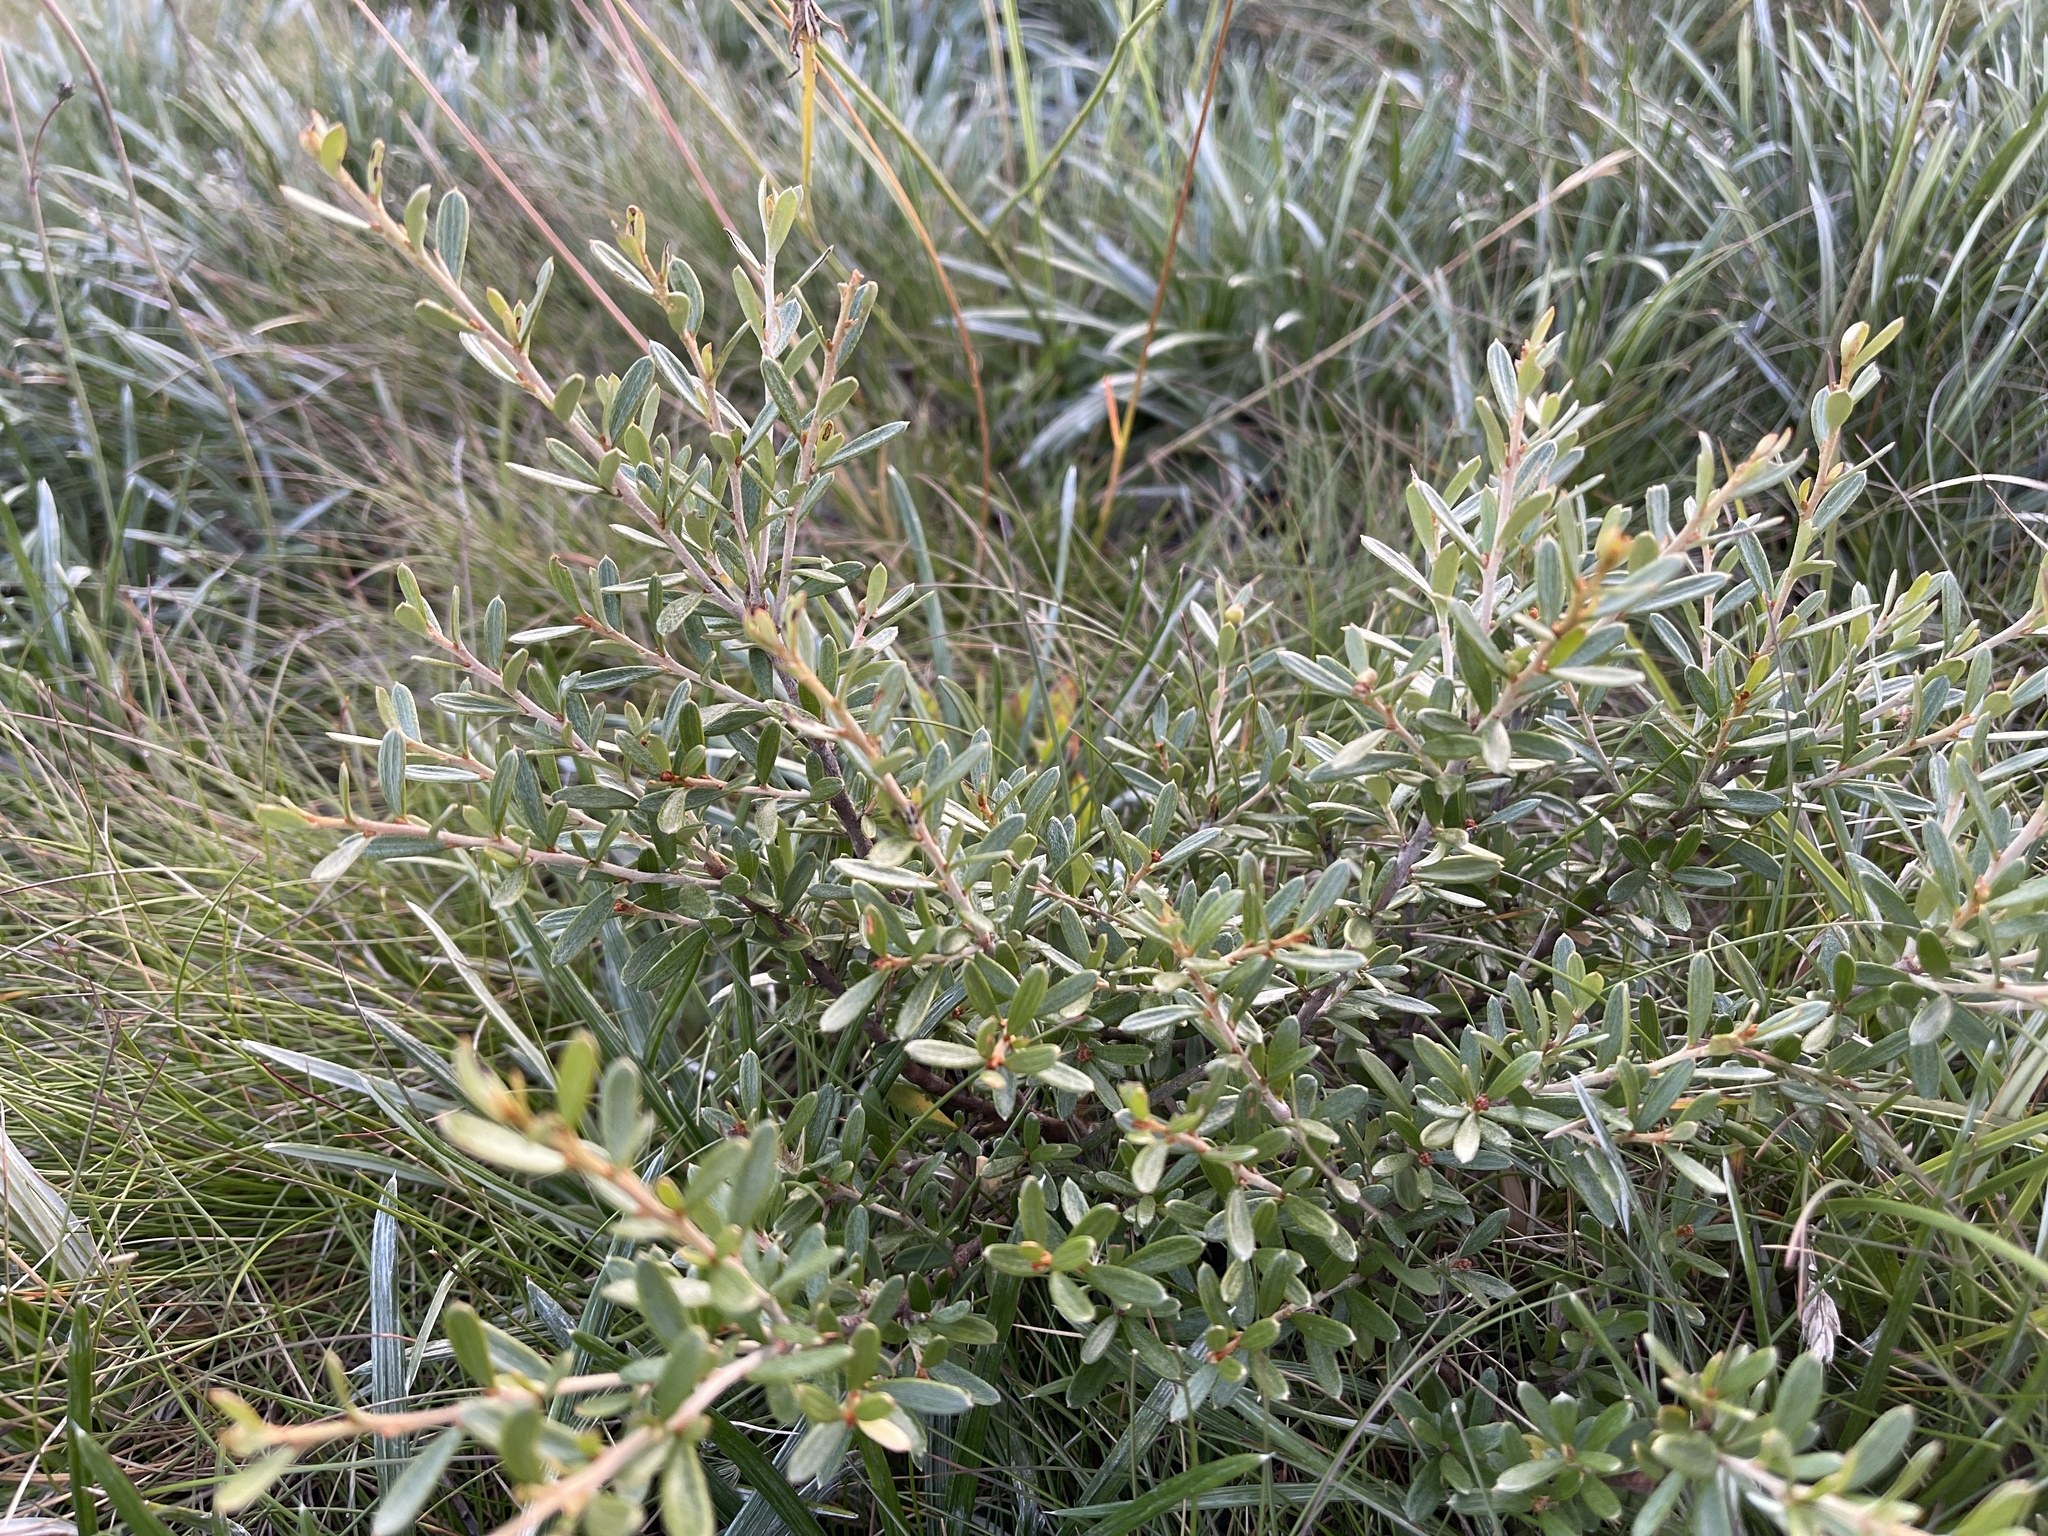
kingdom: Plantae
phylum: Tracheophyta
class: Magnoliopsida
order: Proteales
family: Proteaceae
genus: Grevillea
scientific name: Grevillea australis
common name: Alpine grevillea
